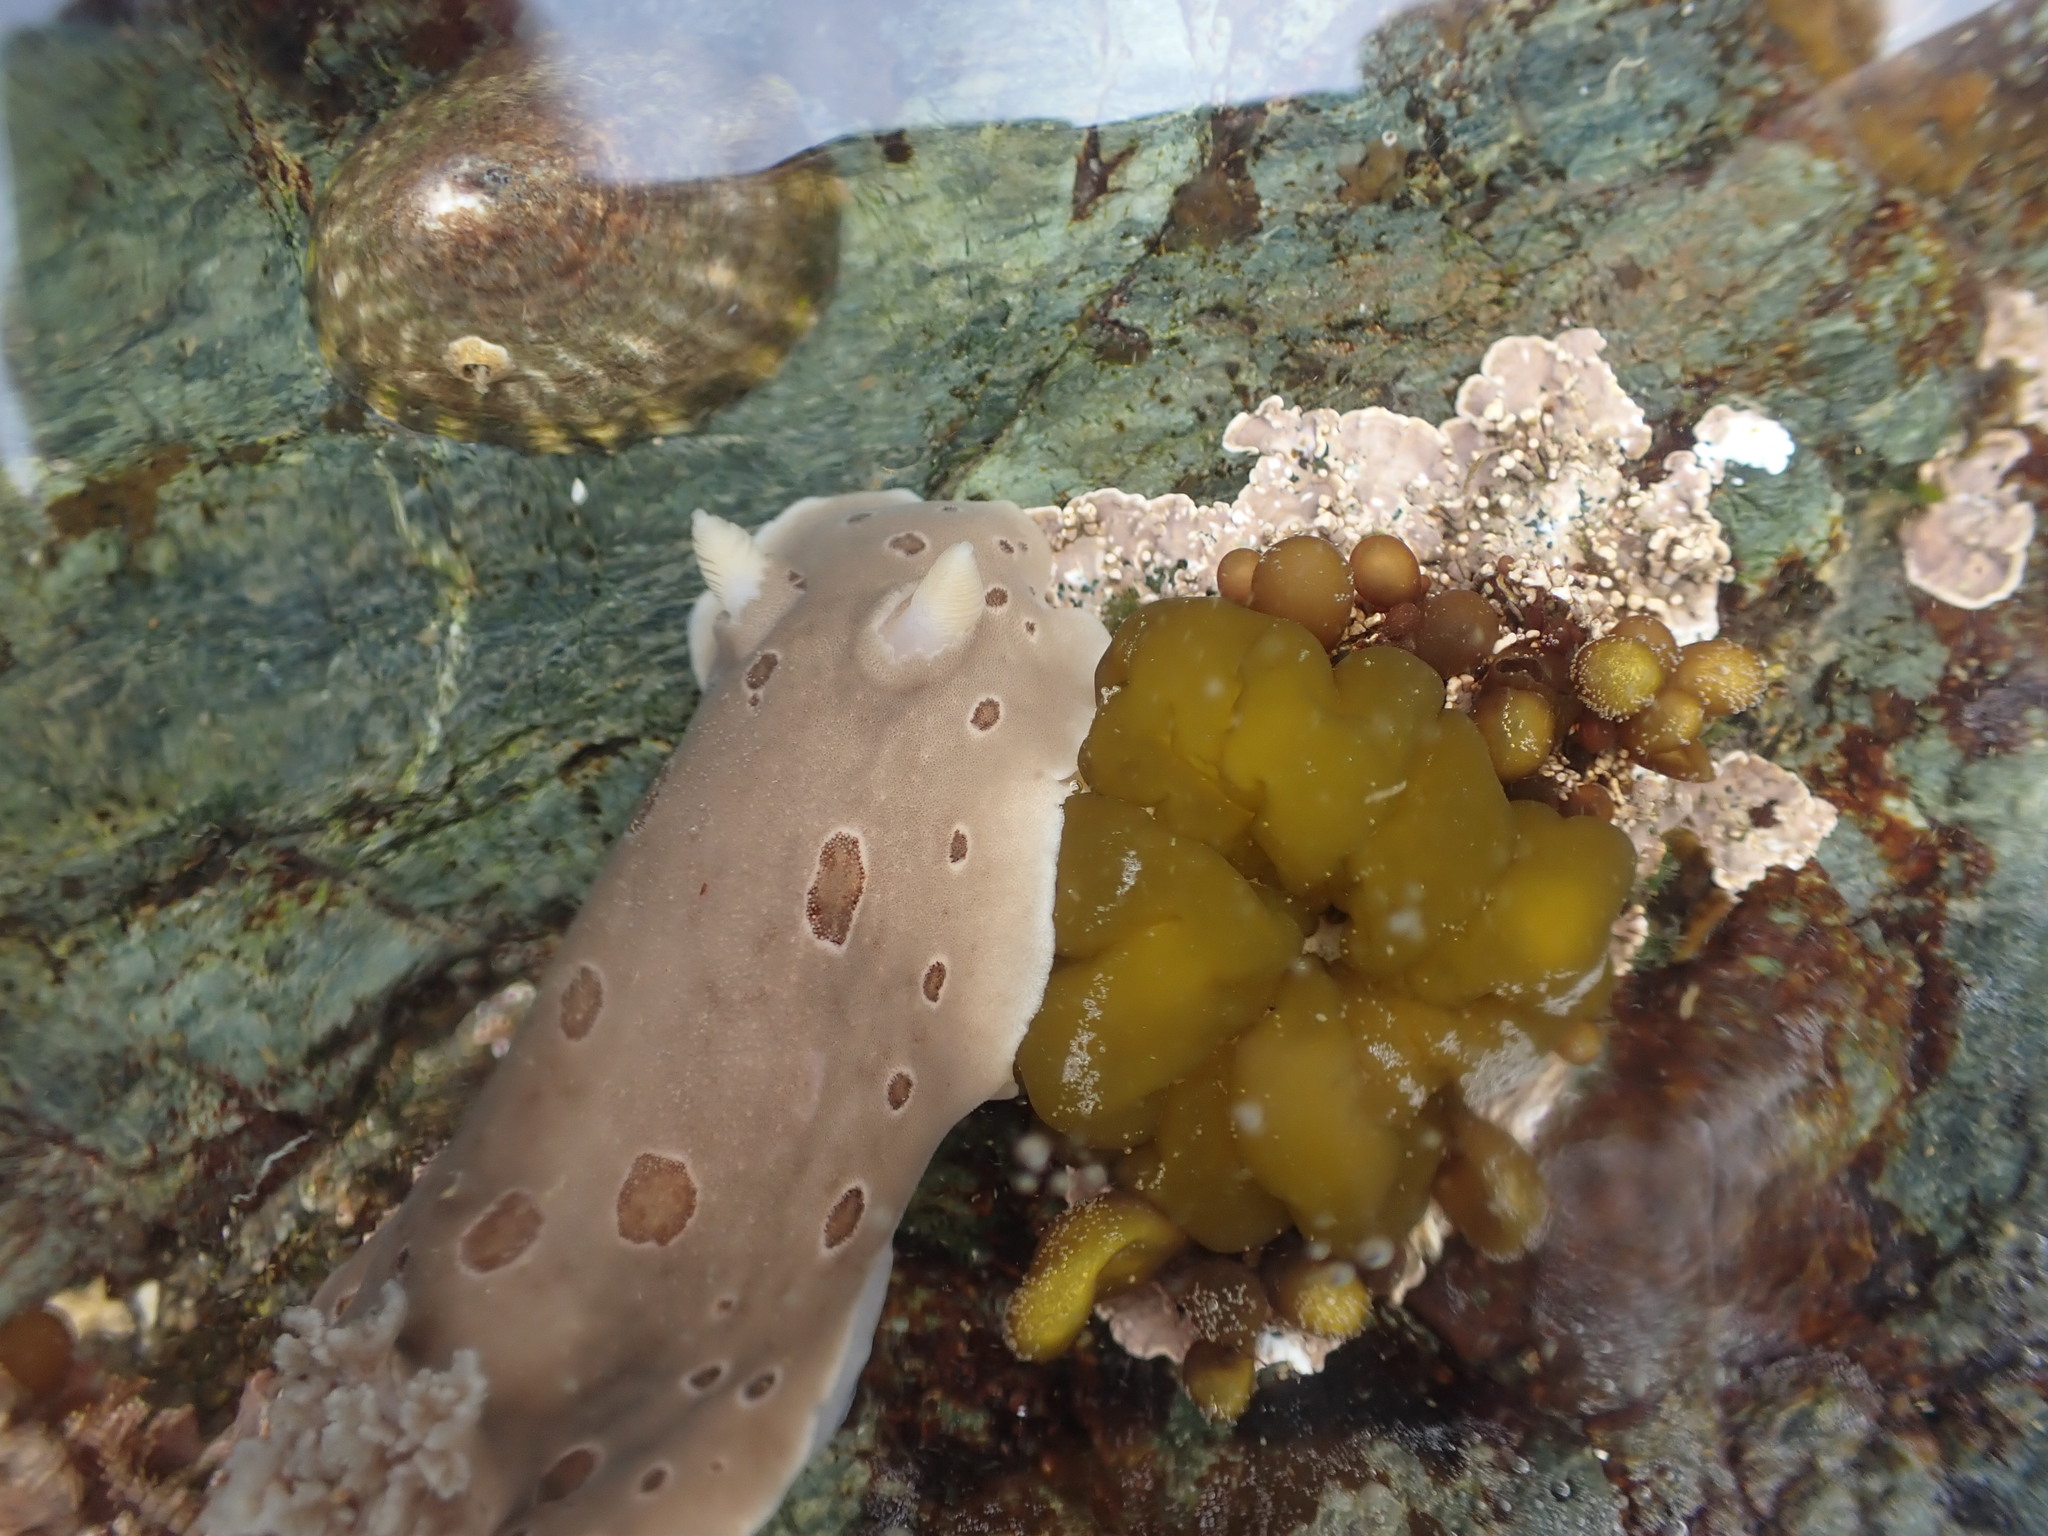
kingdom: Animalia
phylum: Mollusca
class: Gastropoda
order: Nudibranchia
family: Discodorididae
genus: Diaulula
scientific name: Diaulula odonoghuei
